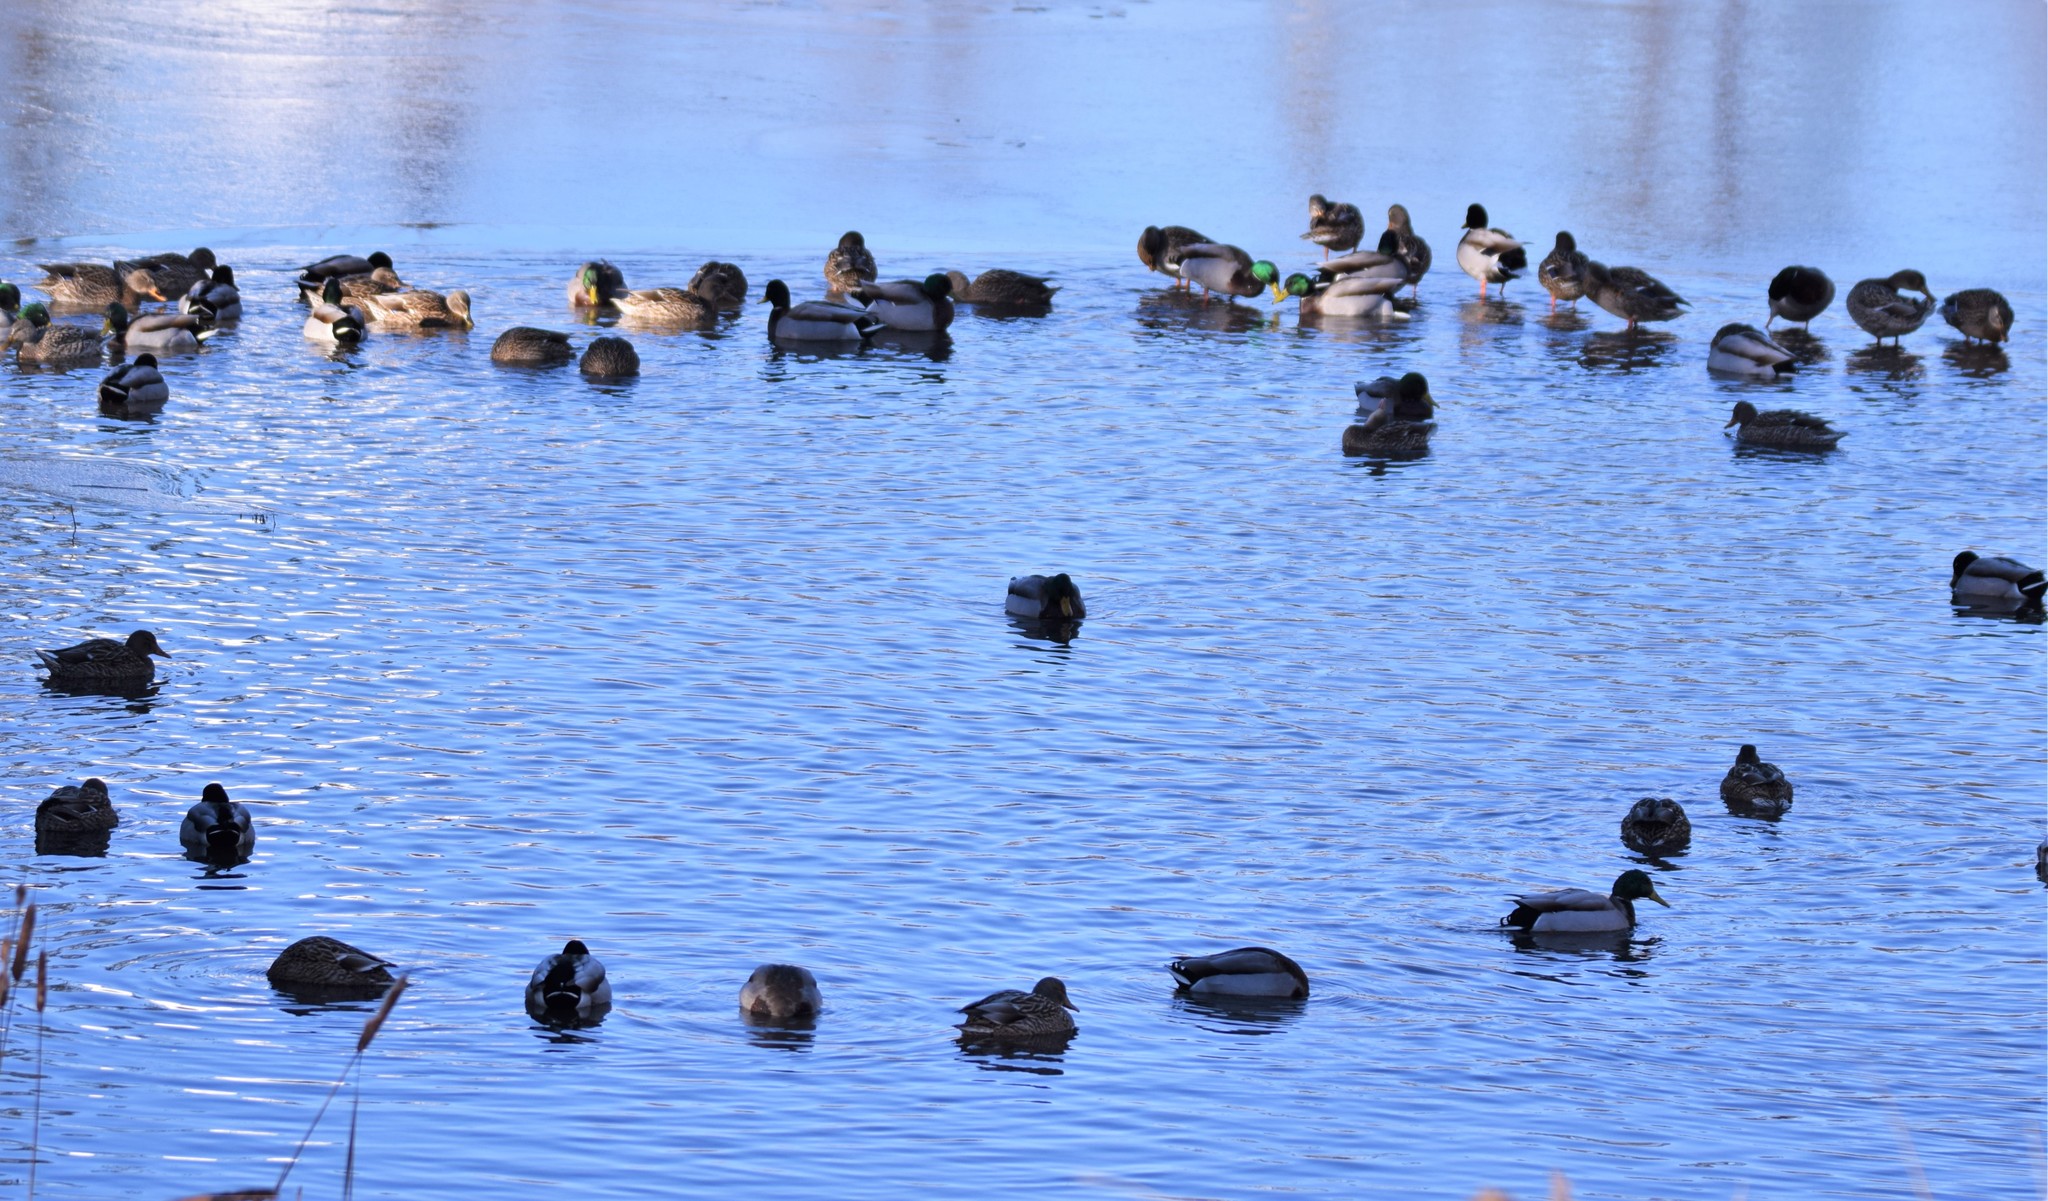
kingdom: Animalia
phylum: Chordata
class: Aves
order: Anseriformes
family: Anatidae
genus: Anas
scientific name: Anas platyrhynchos
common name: Mallard
